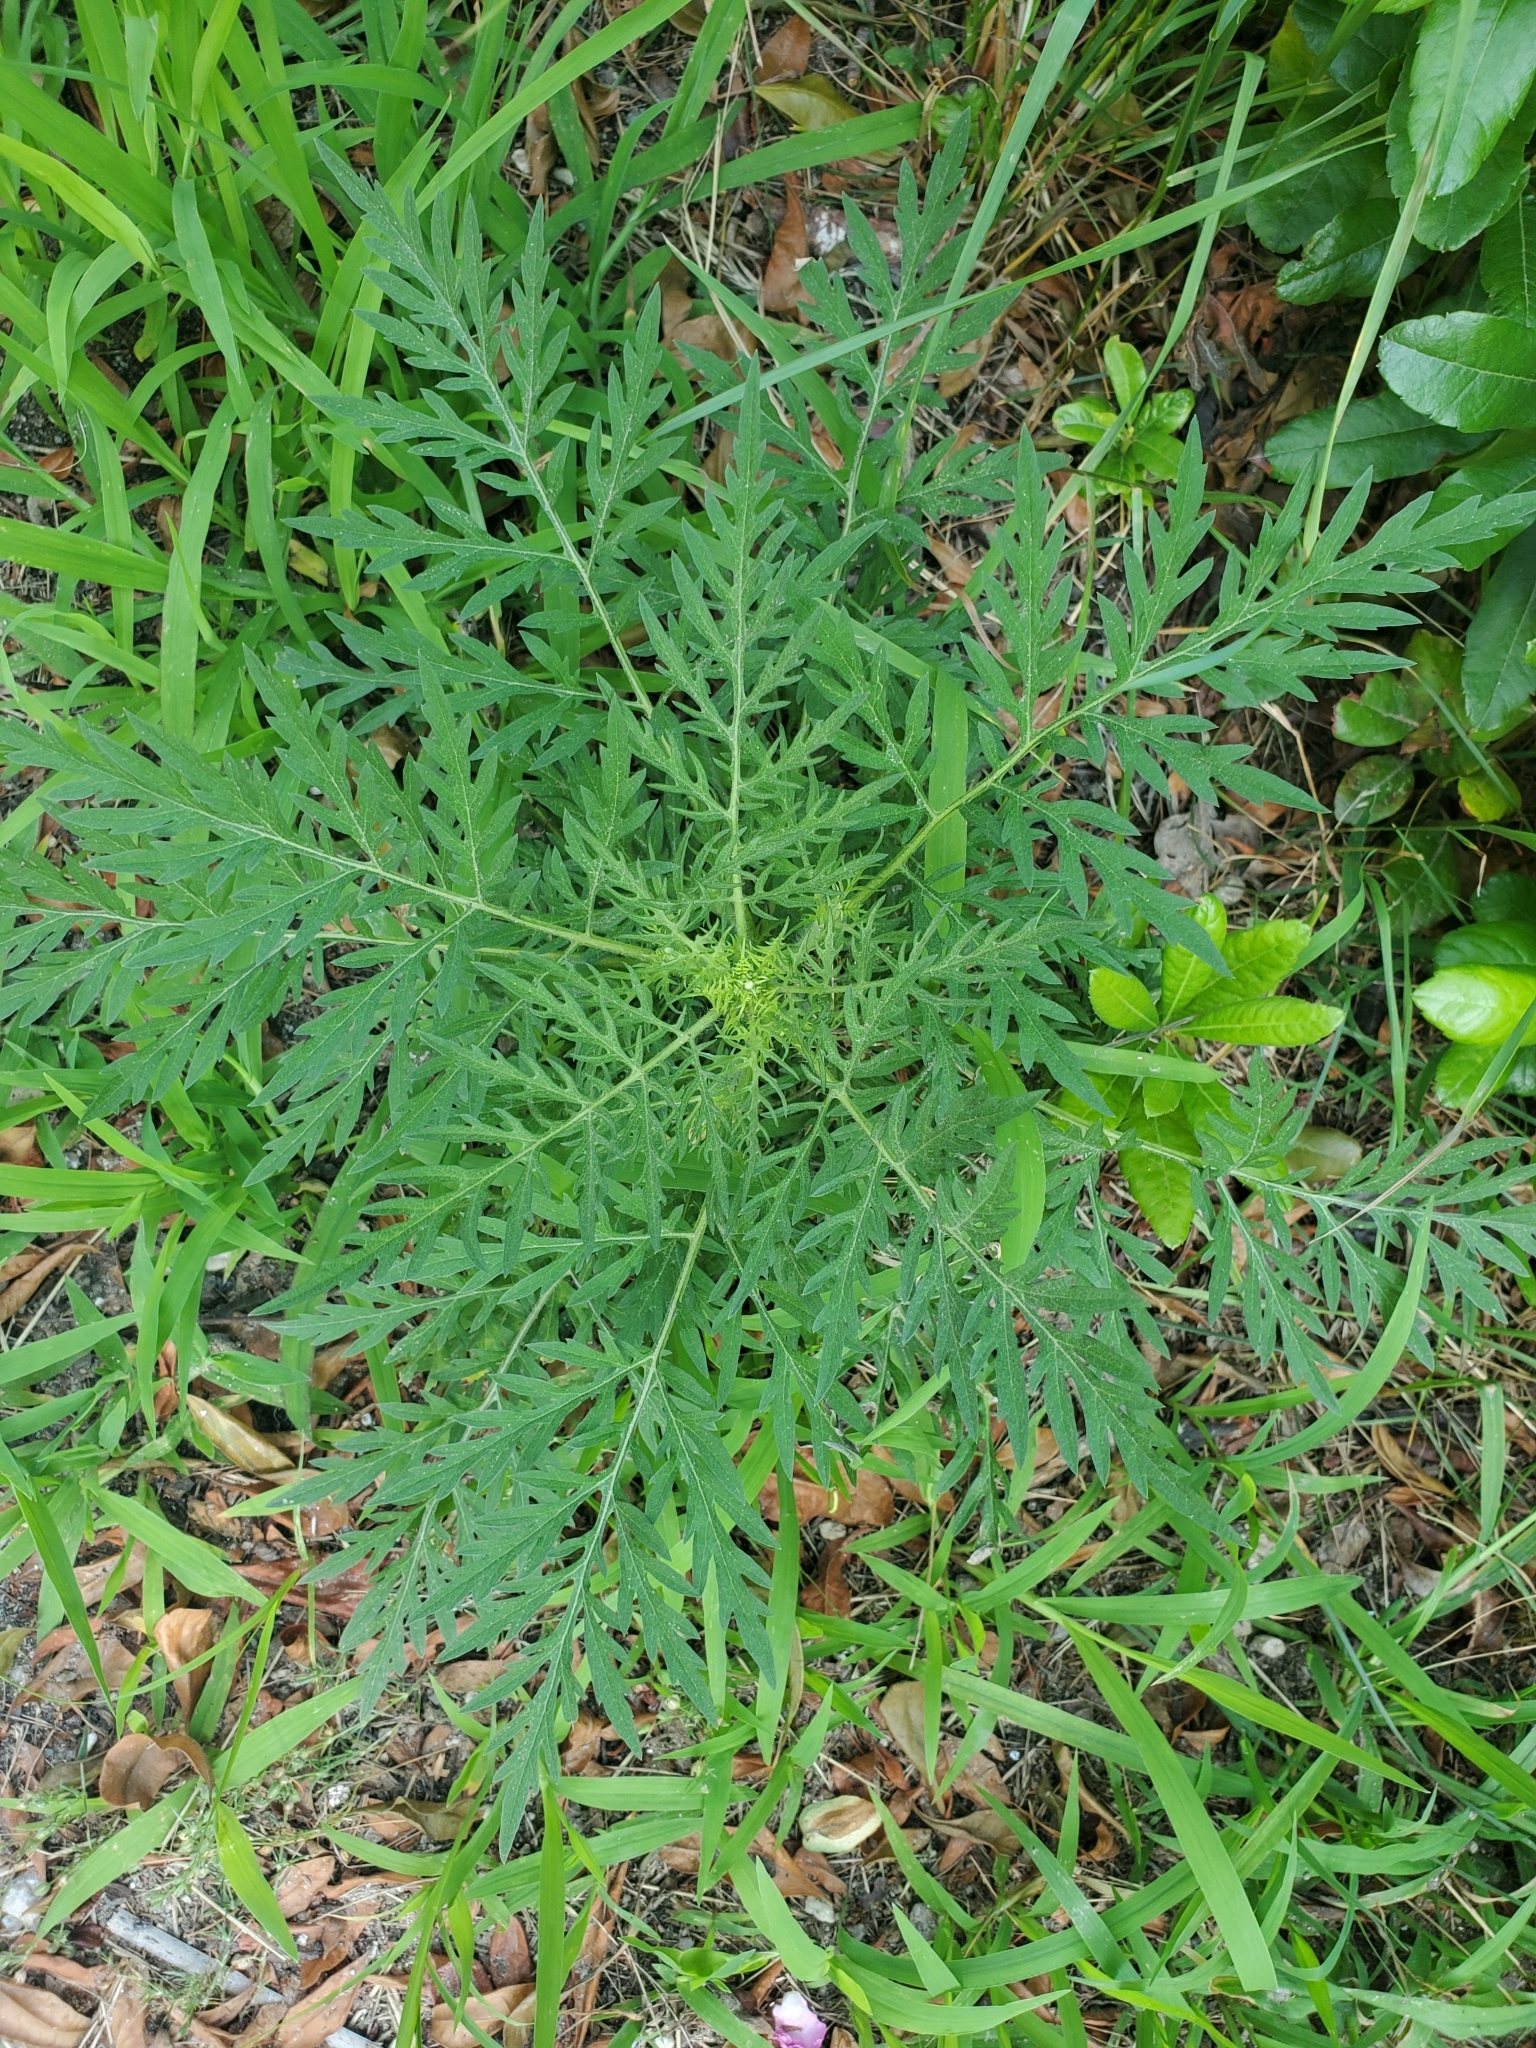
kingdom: Plantae
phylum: Tracheophyta
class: Magnoliopsida
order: Asterales
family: Asteraceae
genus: Ambrosia
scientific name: Ambrosia artemisiifolia
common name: Annual ragweed
